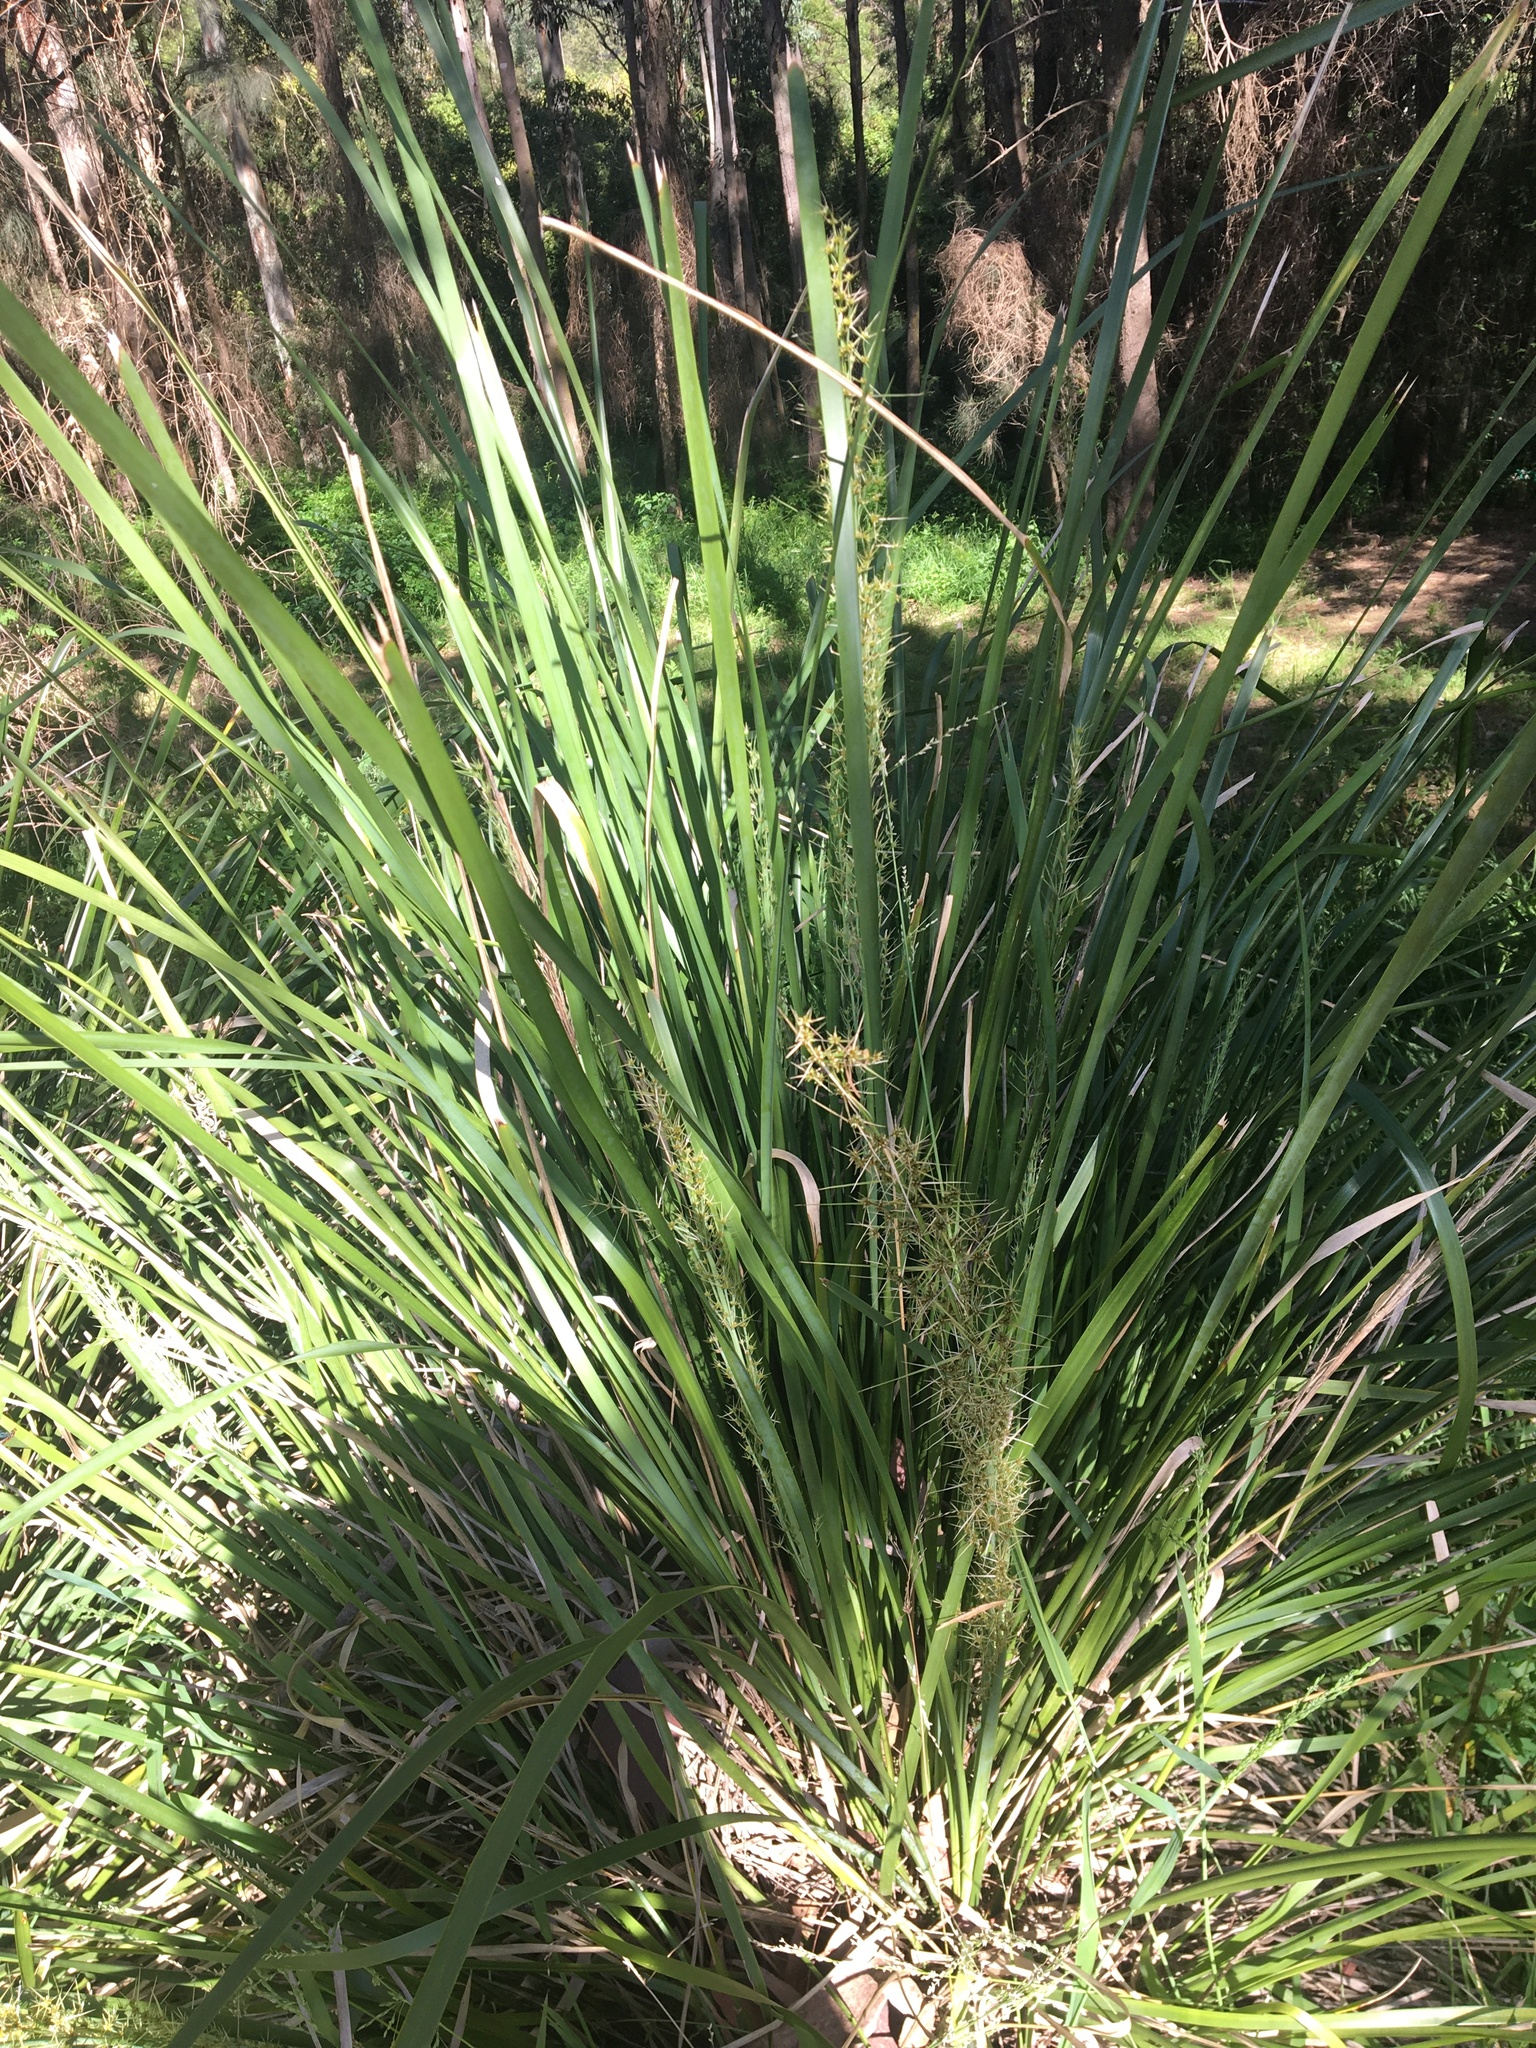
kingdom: Plantae
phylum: Tracheophyta
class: Liliopsida
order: Asparagales
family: Asparagaceae
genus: Lomandra
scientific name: Lomandra longifolia
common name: Longleaf mat-rush
